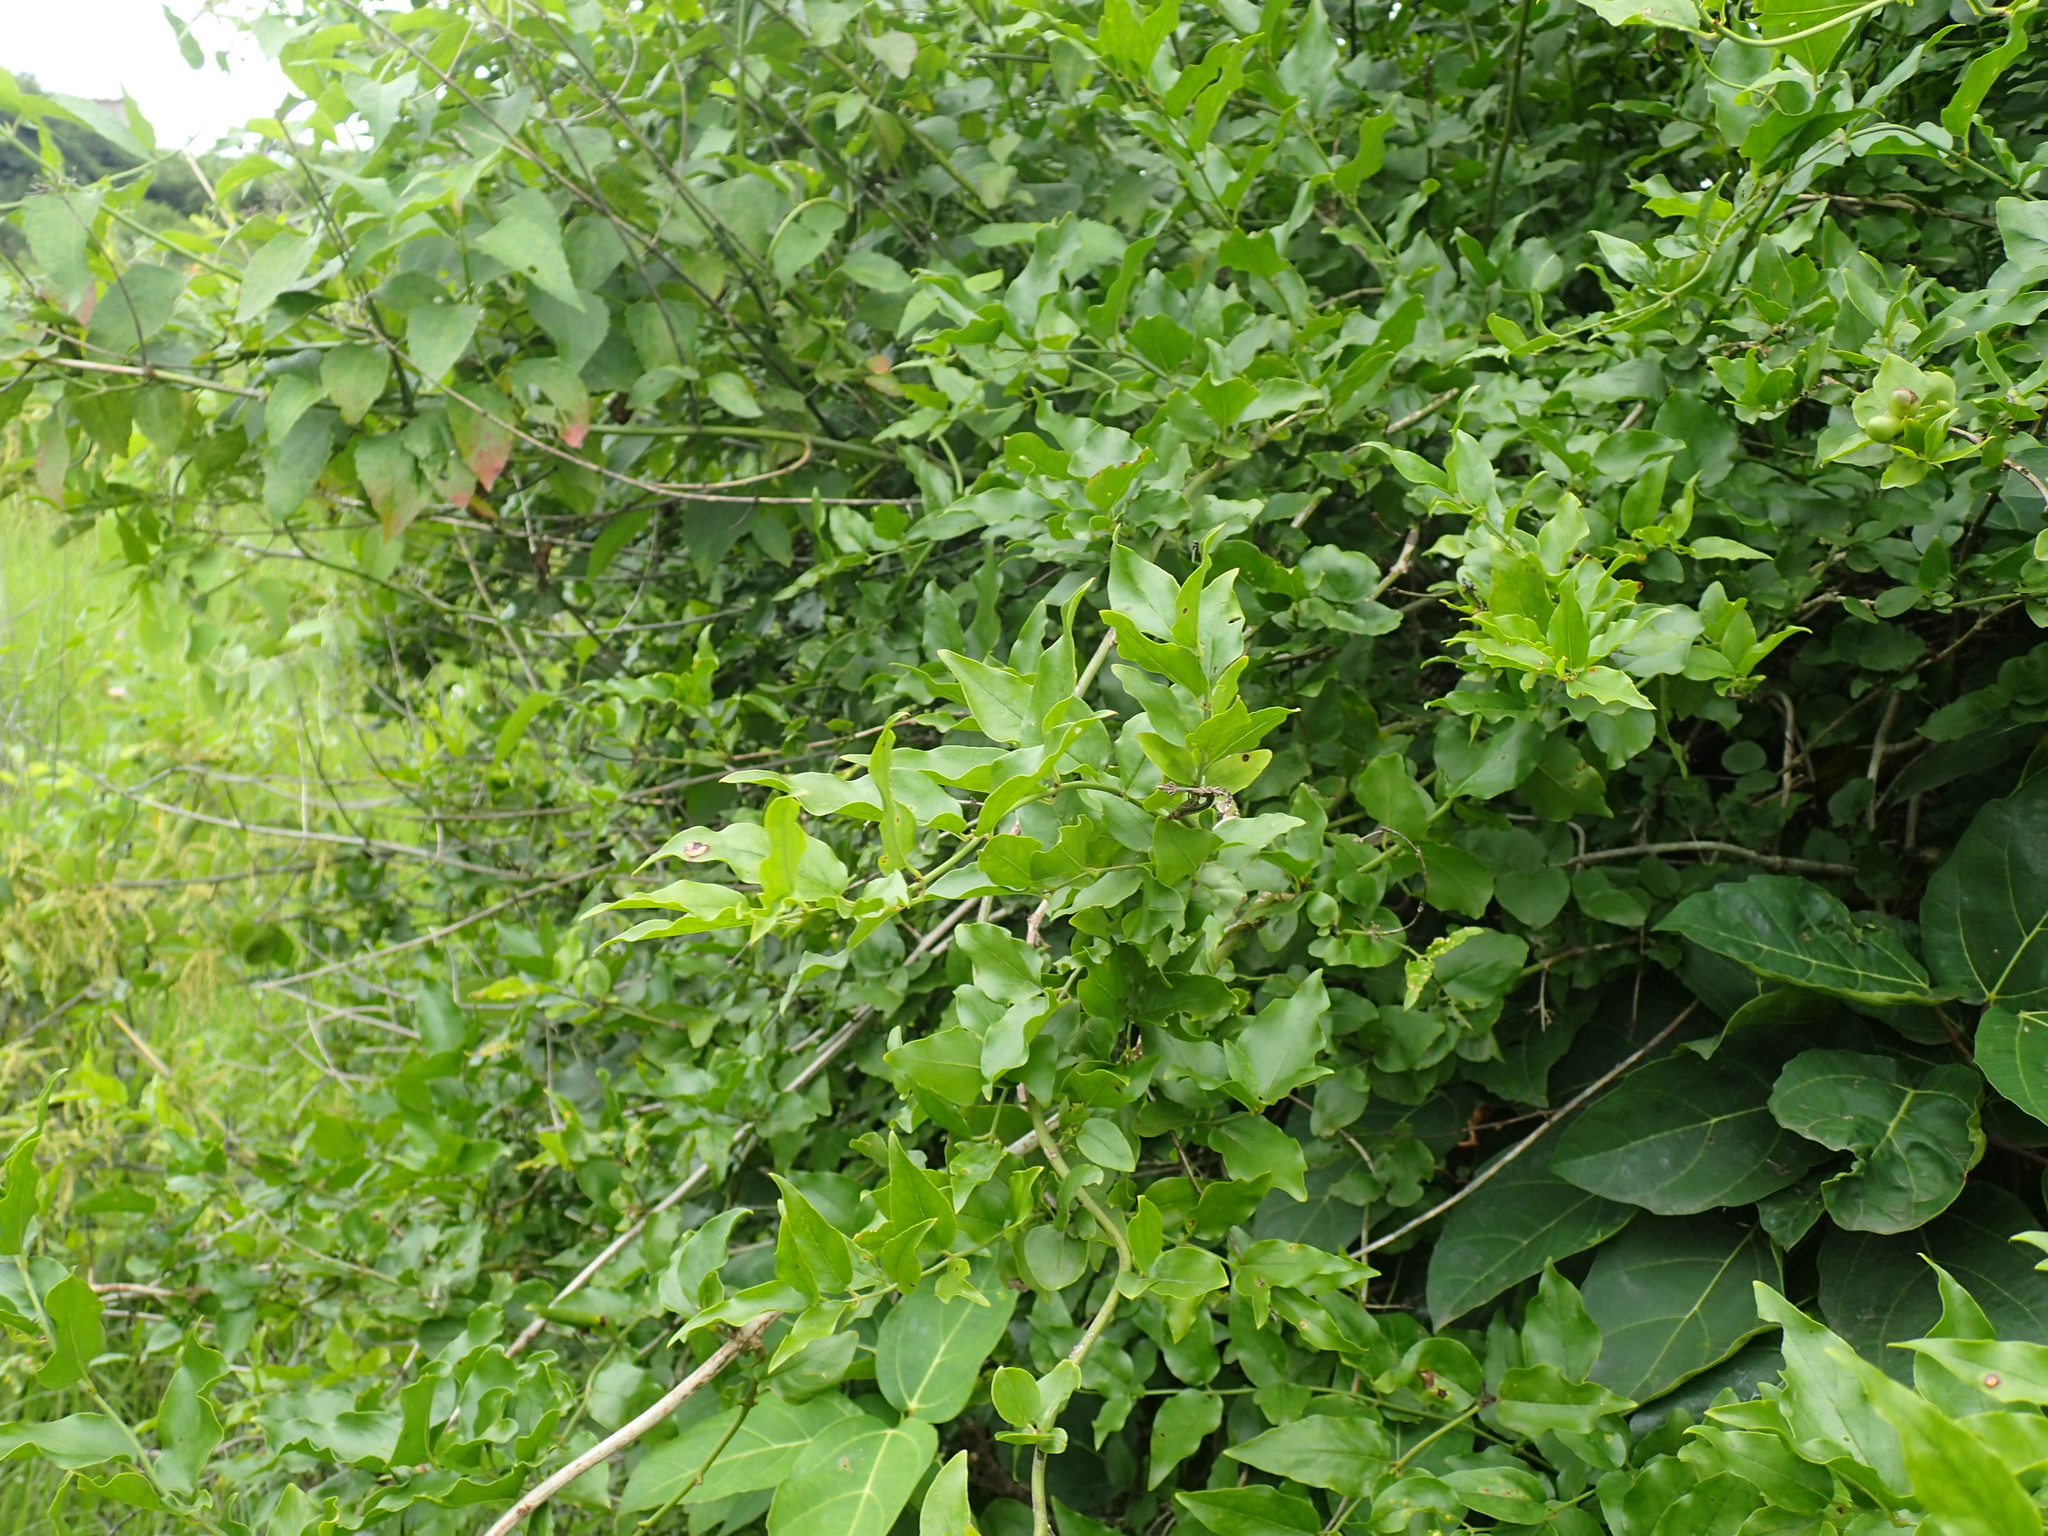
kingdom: Plantae
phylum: Tracheophyta
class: Magnoliopsida
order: Lamiales
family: Oleaceae
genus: Jasminum
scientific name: Jasminum multipartitum
